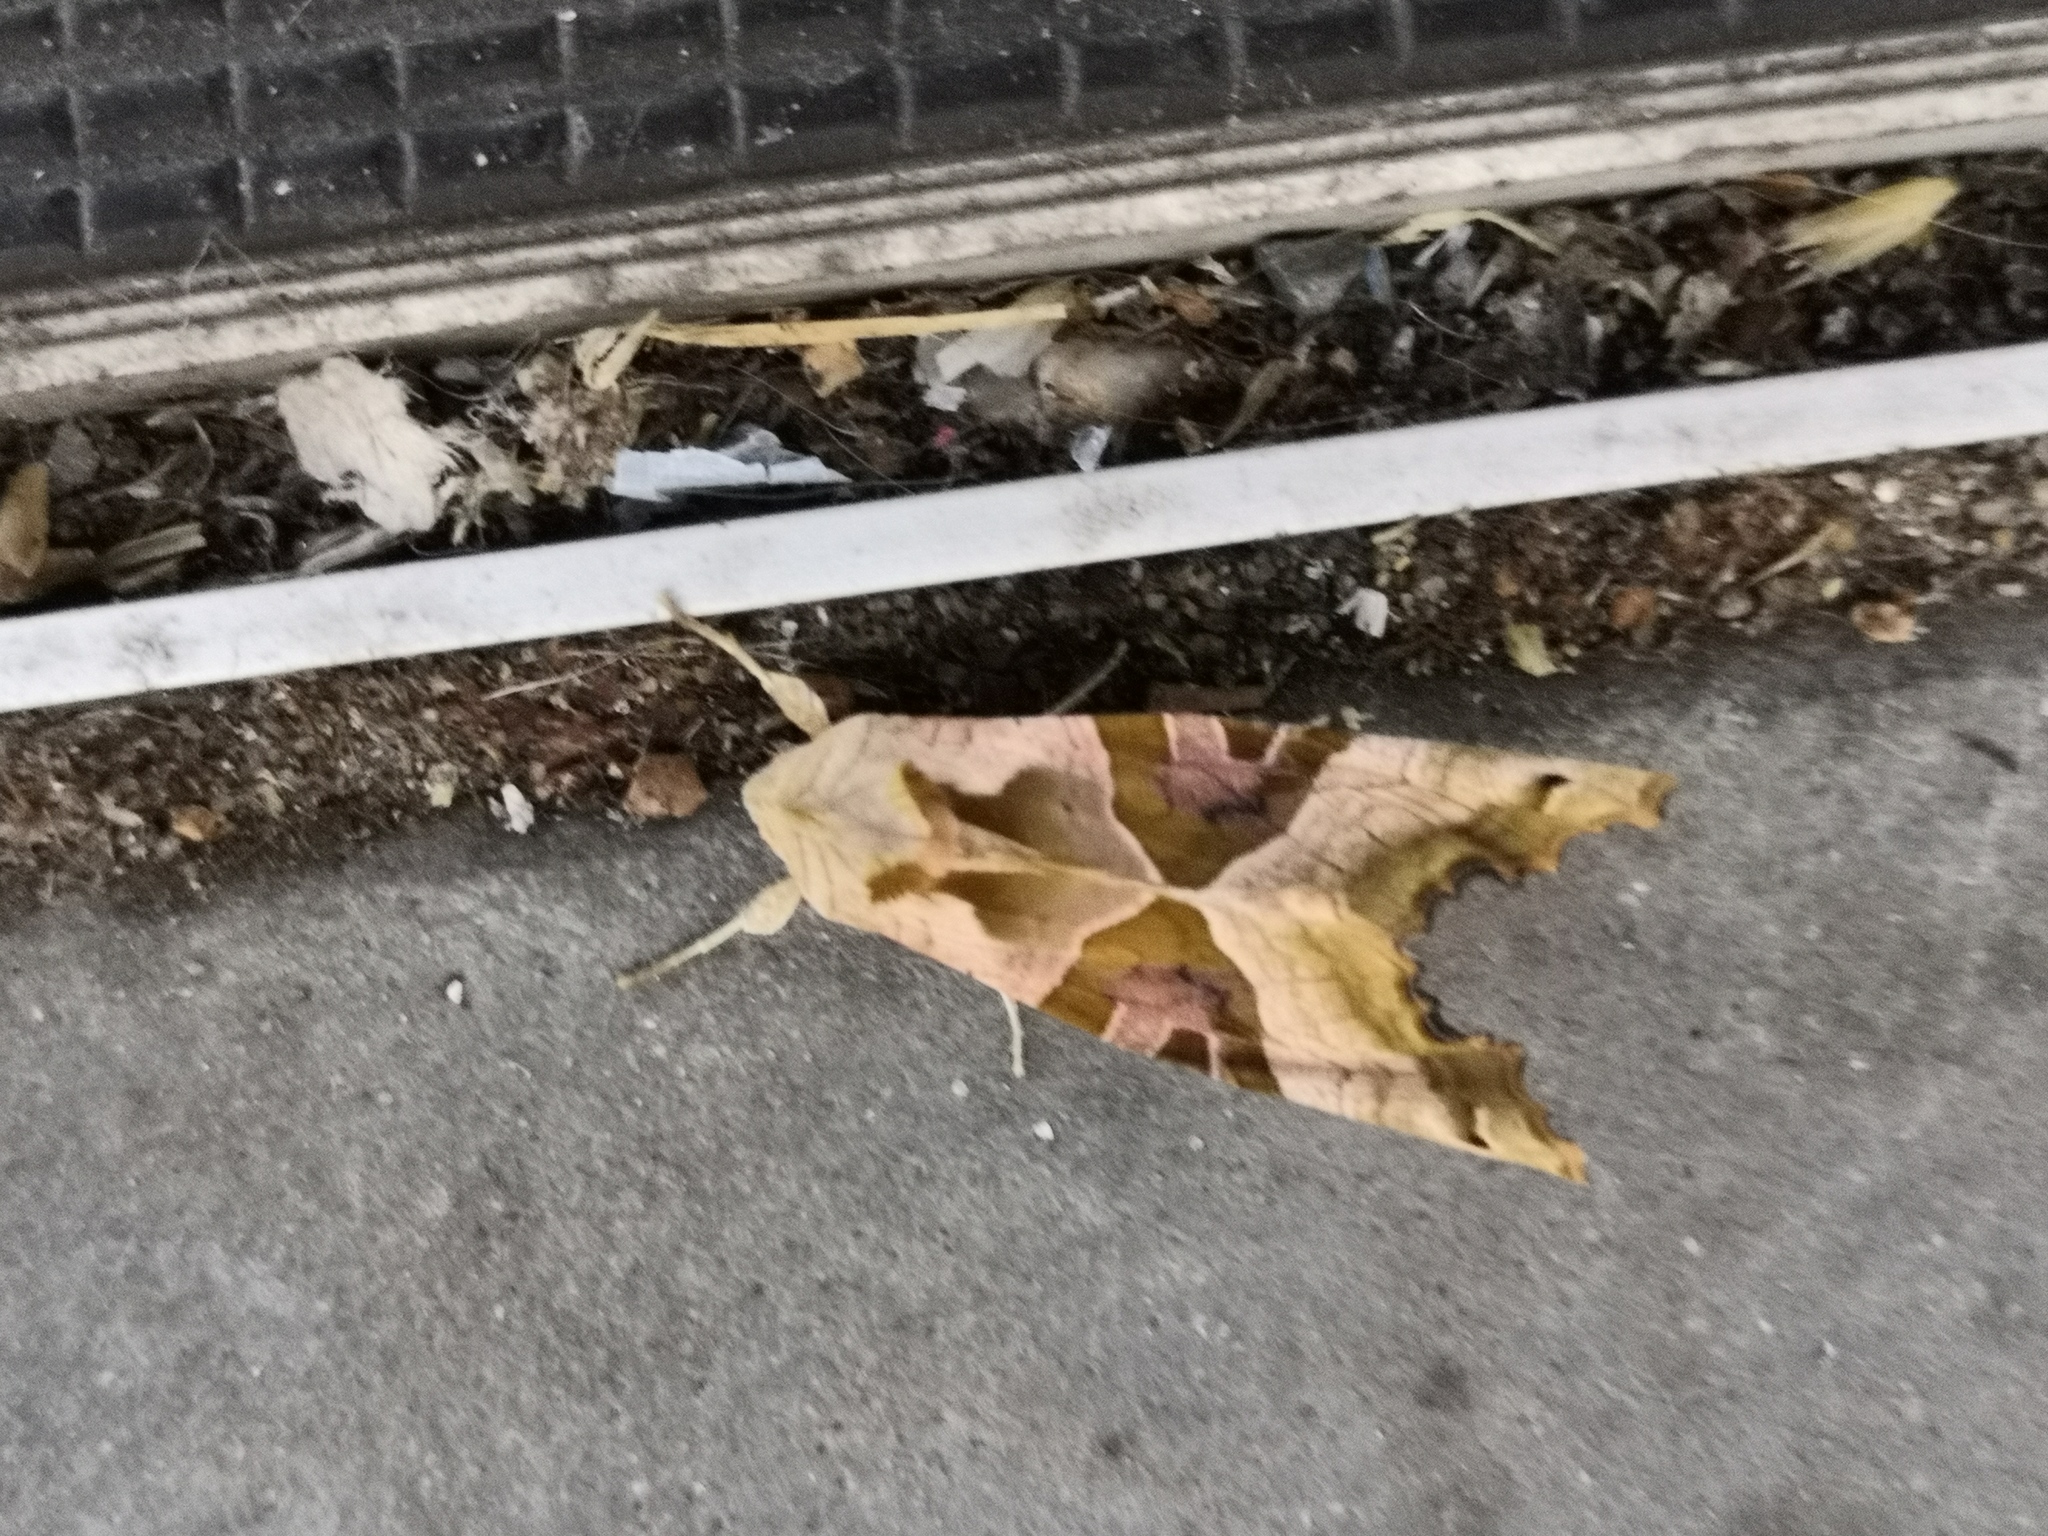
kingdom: Animalia
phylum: Arthropoda
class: Insecta
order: Lepidoptera
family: Noctuidae
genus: Phlogophora
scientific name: Phlogophora meticulosa
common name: Angle shades
